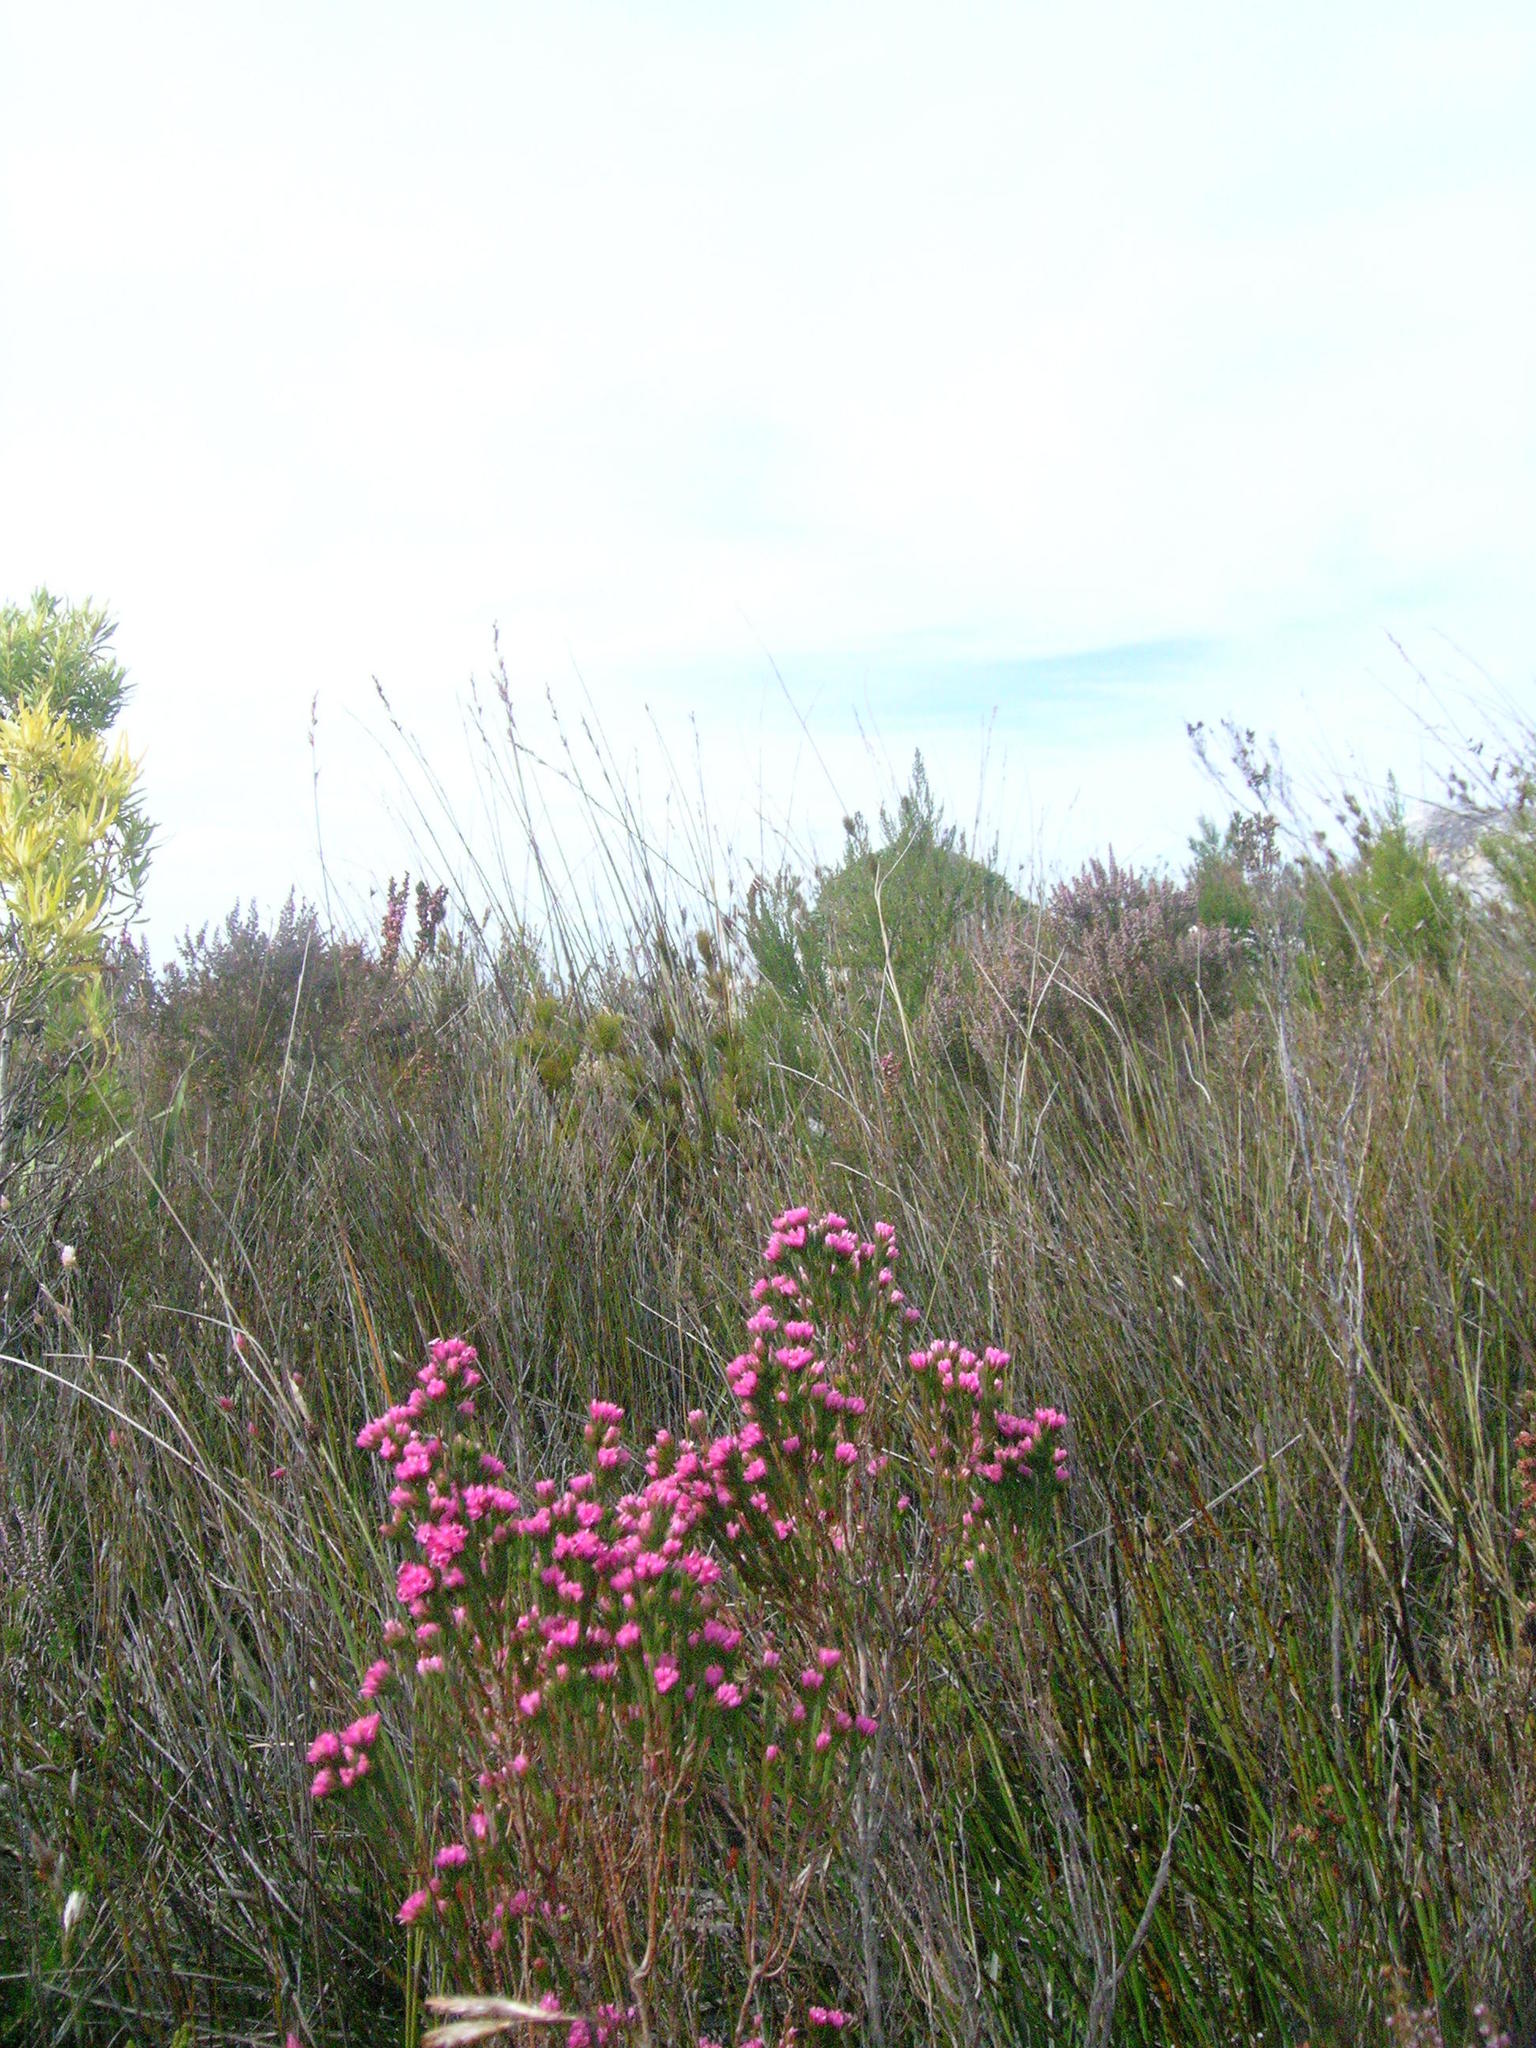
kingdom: Plantae
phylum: Tracheophyta
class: Magnoliopsida
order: Ericales
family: Ericaceae
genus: Erica
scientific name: Erica bracteolaris
